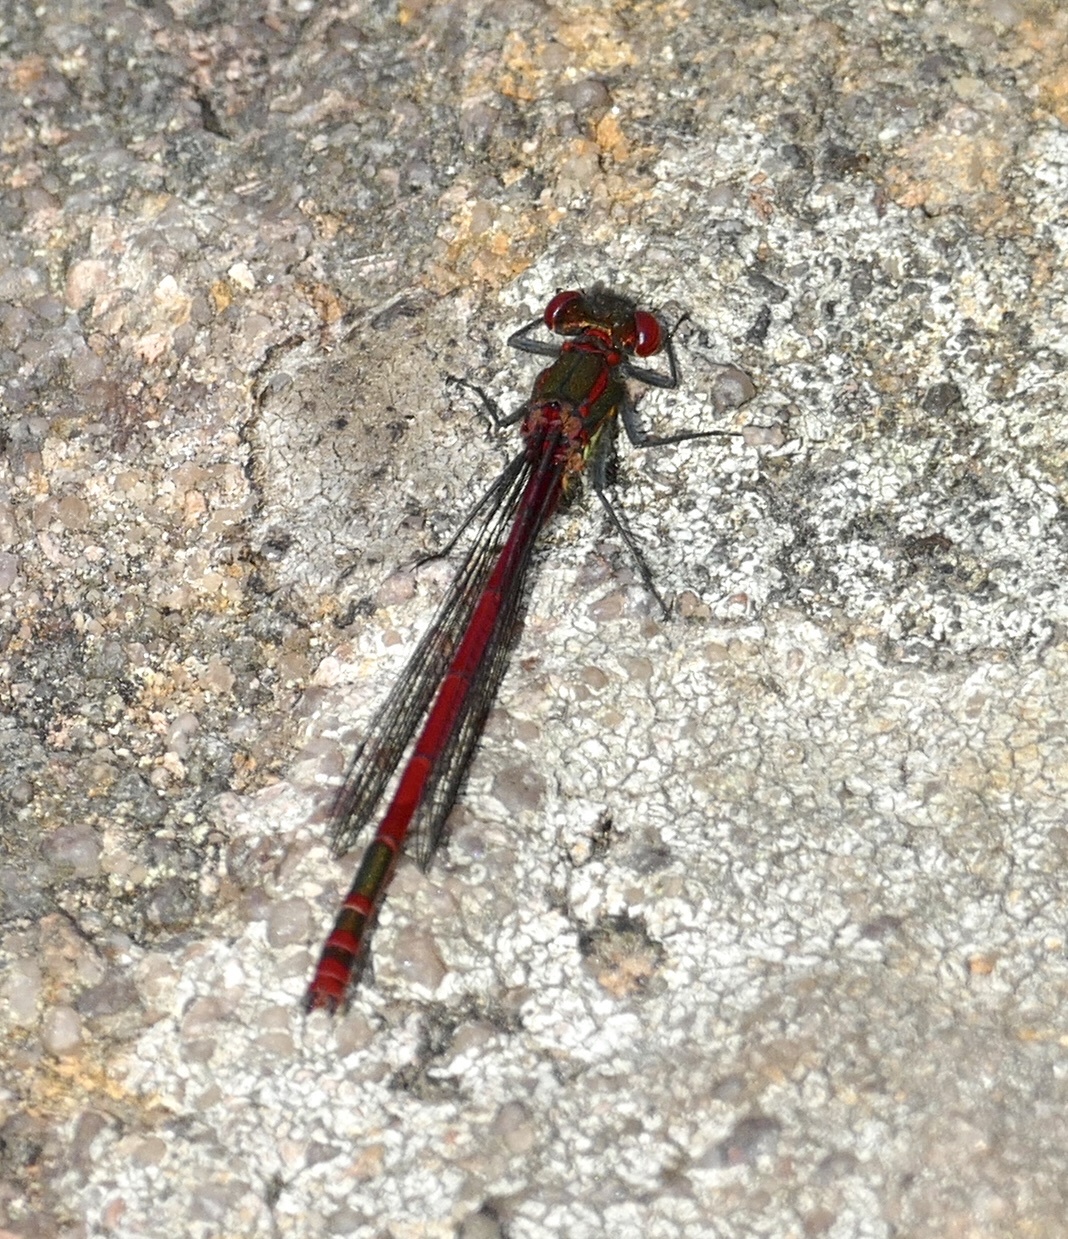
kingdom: Animalia
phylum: Arthropoda
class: Insecta
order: Odonata
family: Coenagrionidae
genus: Pyrrhosoma
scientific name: Pyrrhosoma nymphula
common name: Large red damsel
